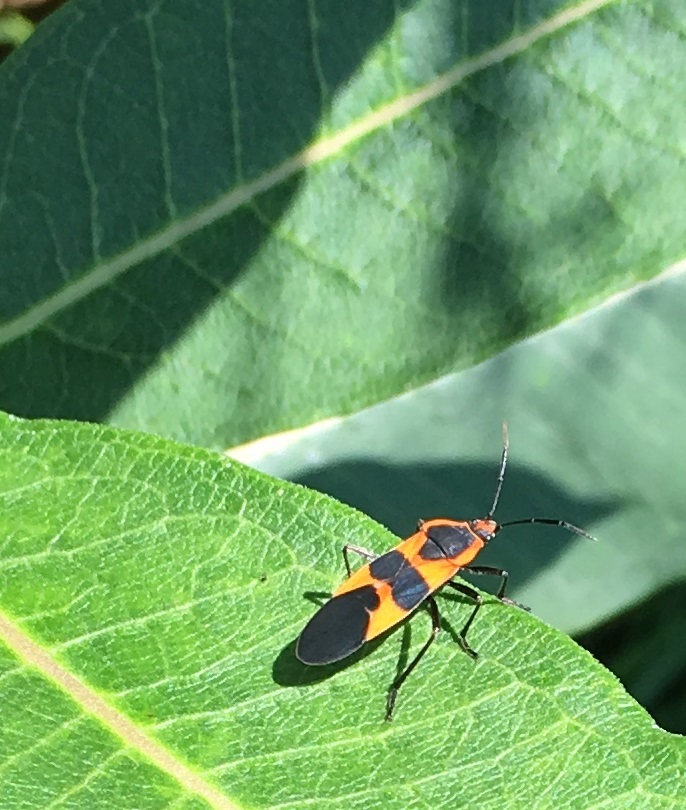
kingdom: Animalia
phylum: Arthropoda
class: Insecta
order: Hemiptera
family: Lygaeidae
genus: Oncopeltus
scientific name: Oncopeltus fasciatus
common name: Large milkweed bug
